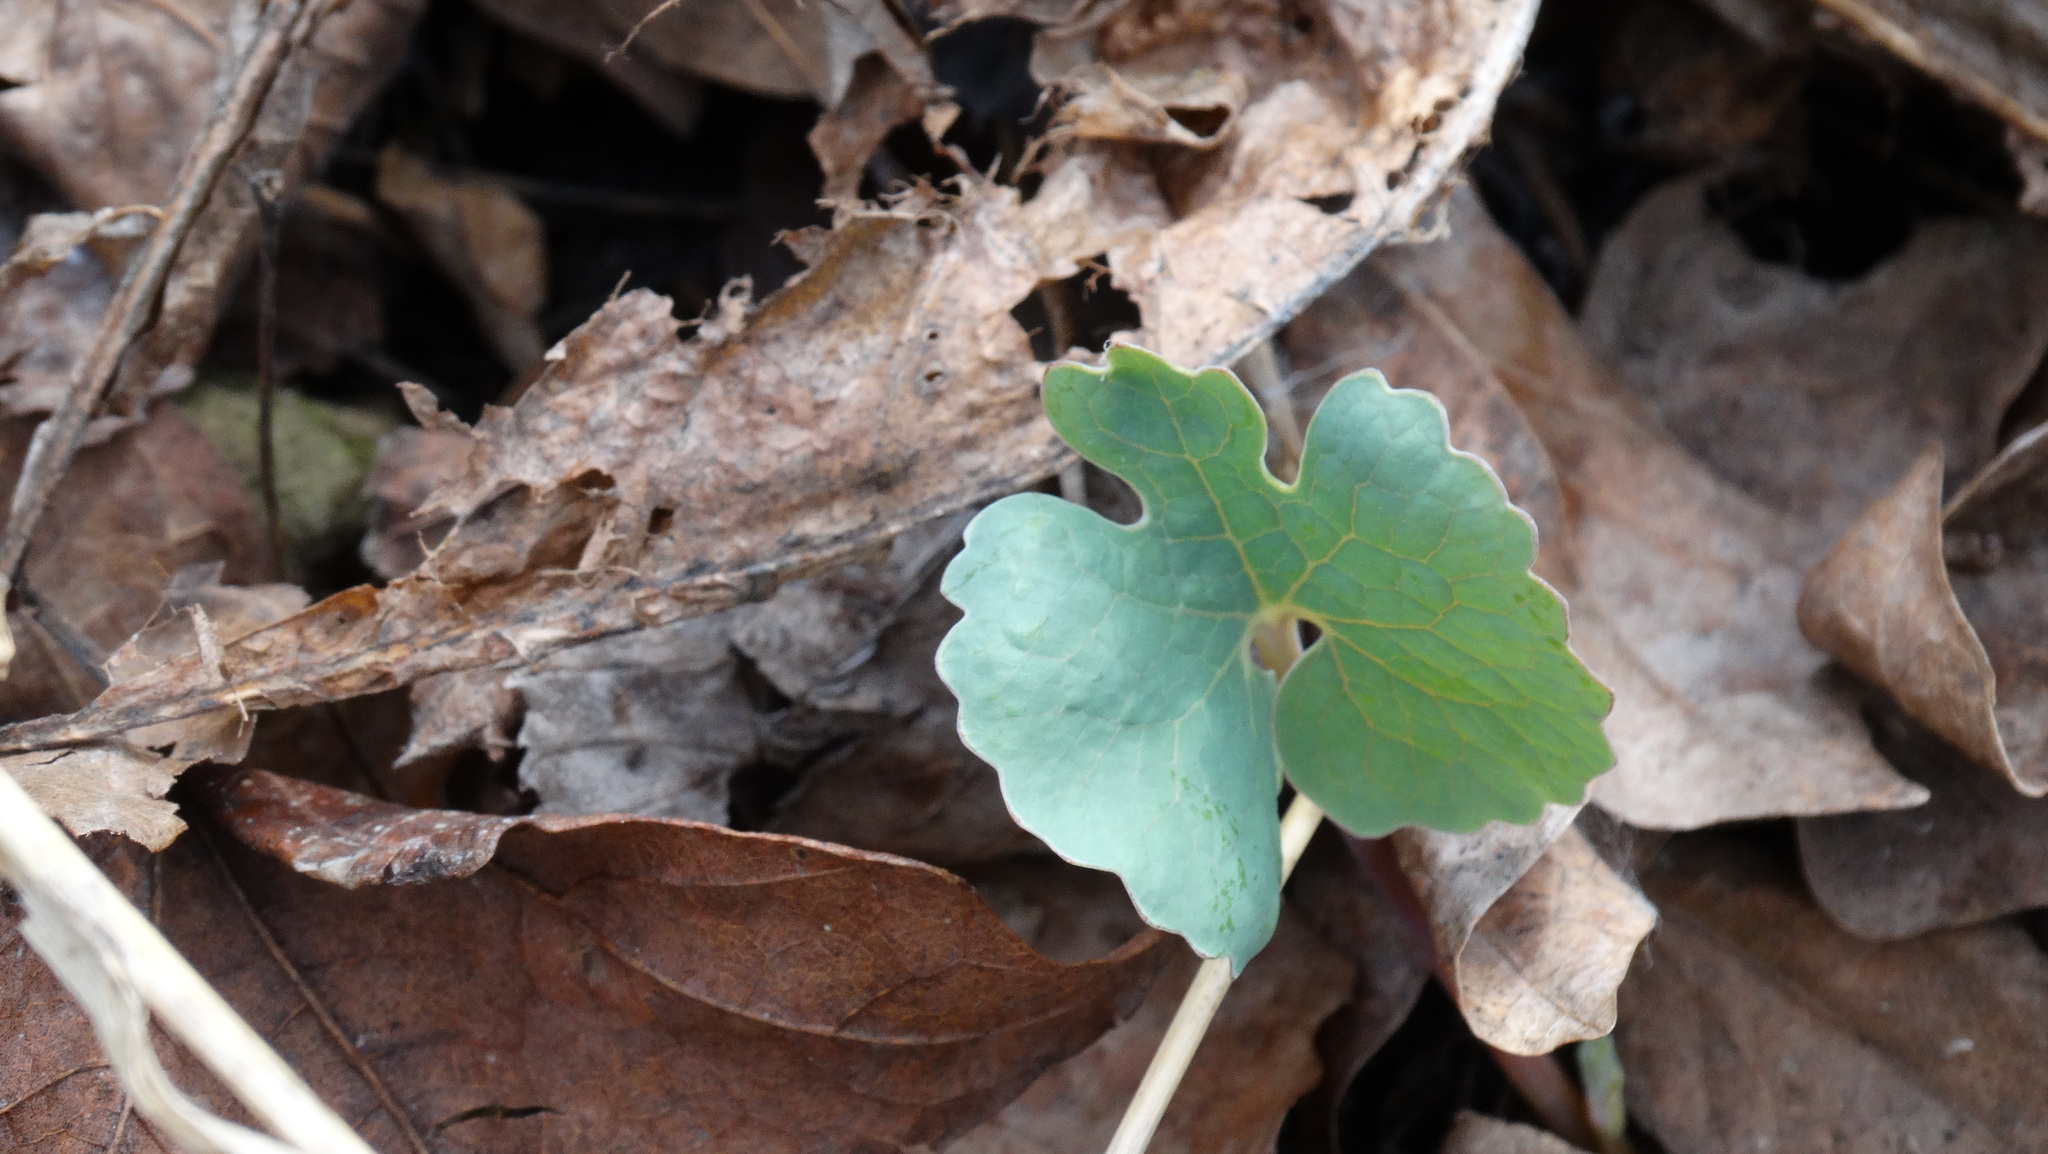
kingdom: Plantae
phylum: Tracheophyta
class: Magnoliopsida
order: Ranunculales
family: Papaveraceae
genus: Sanguinaria
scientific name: Sanguinaria canadensis
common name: Bloodroot
